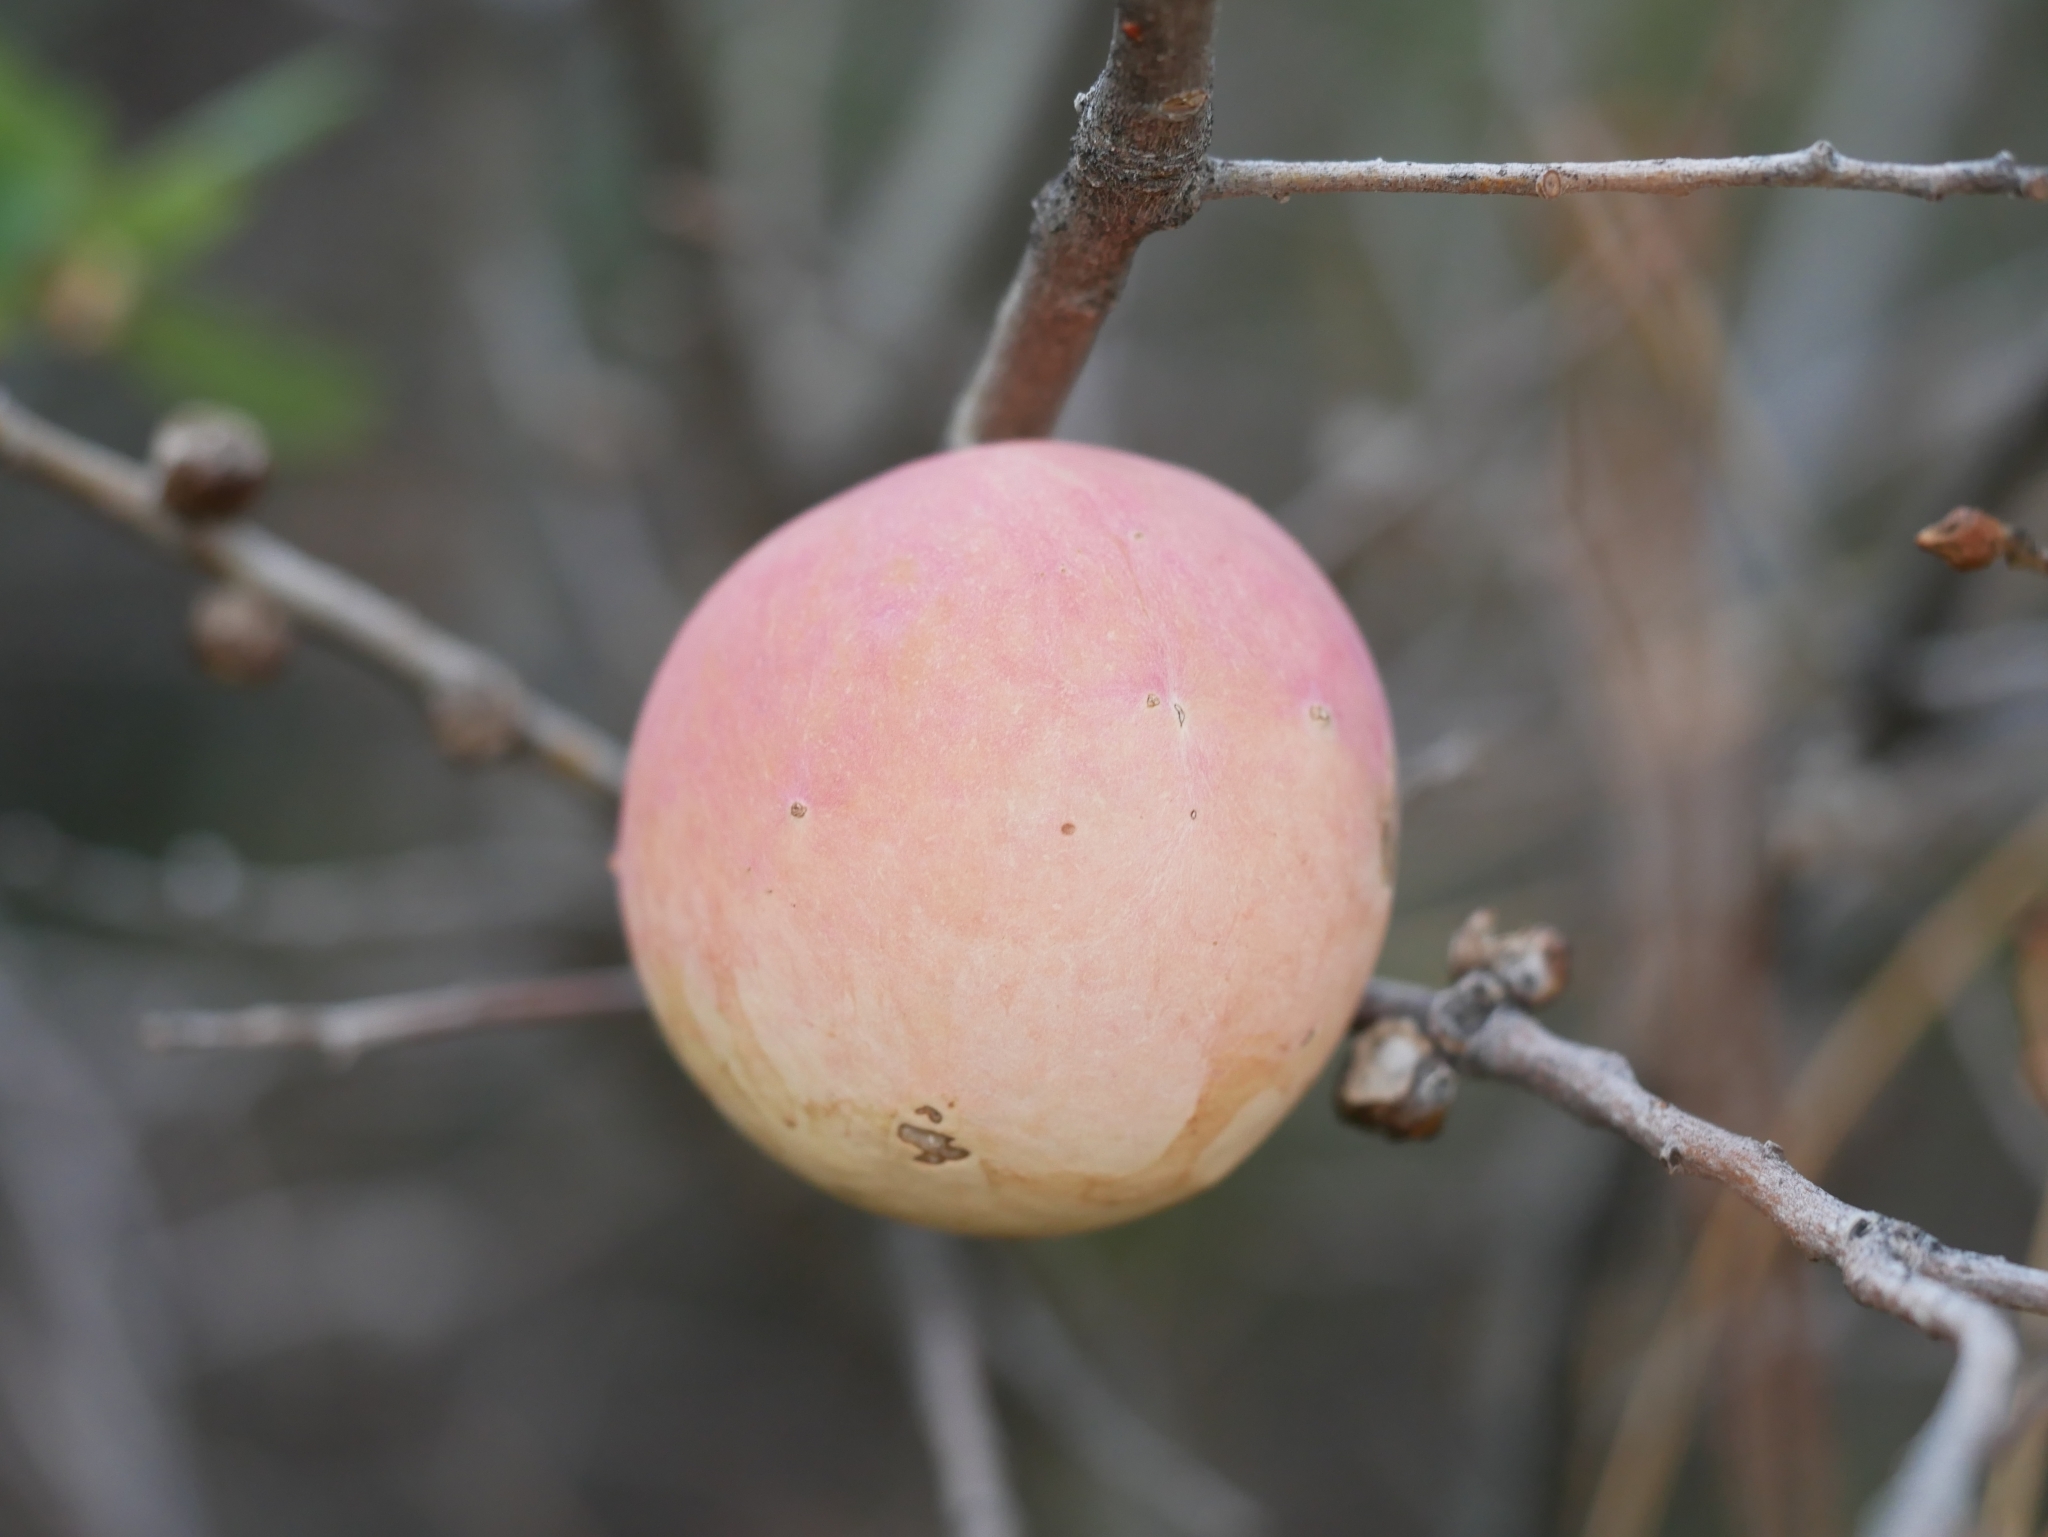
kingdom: Animalia
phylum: Arthropoda
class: Insecta
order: Hymenoptera
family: Cynipidae
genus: Andricus
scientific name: Andricus quercuscalifornicus
